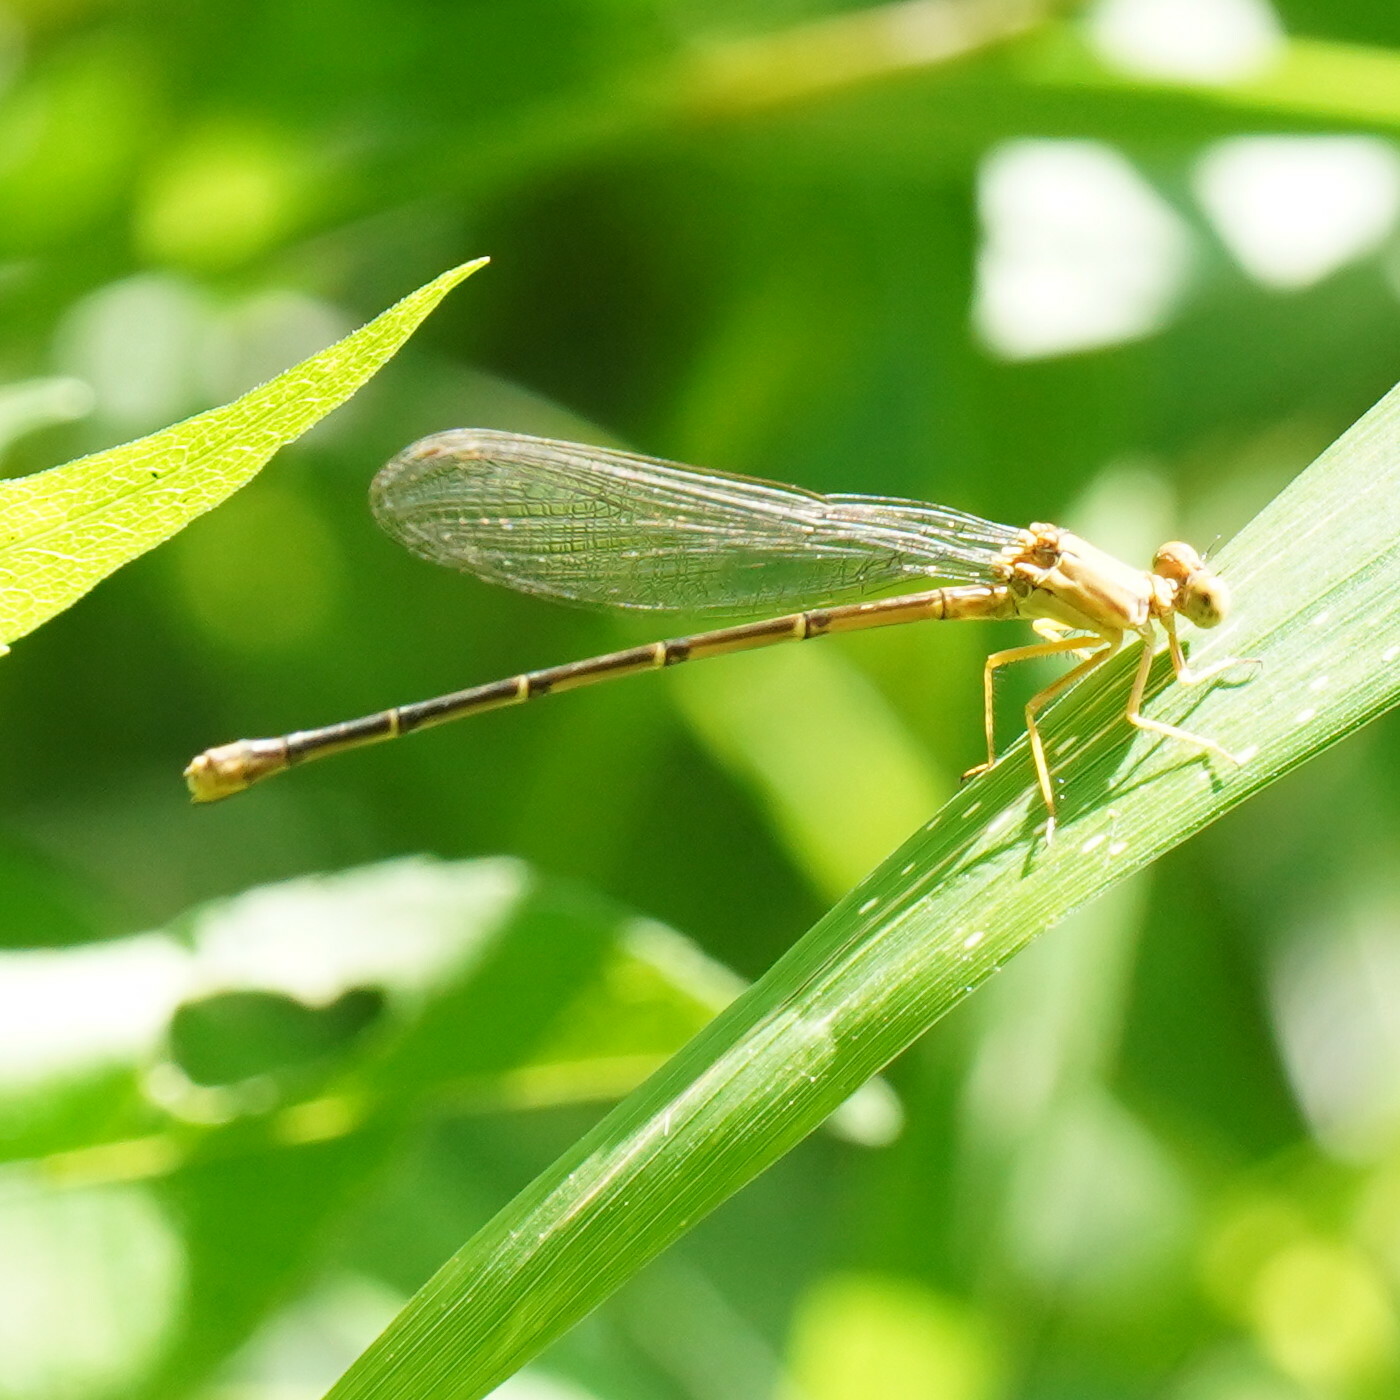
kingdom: Animalia
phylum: Arthropoda
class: Insecta
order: Odonata
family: Coenagrionidae
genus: Argia
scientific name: Argia apicalis
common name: Blue-fronted dancer
